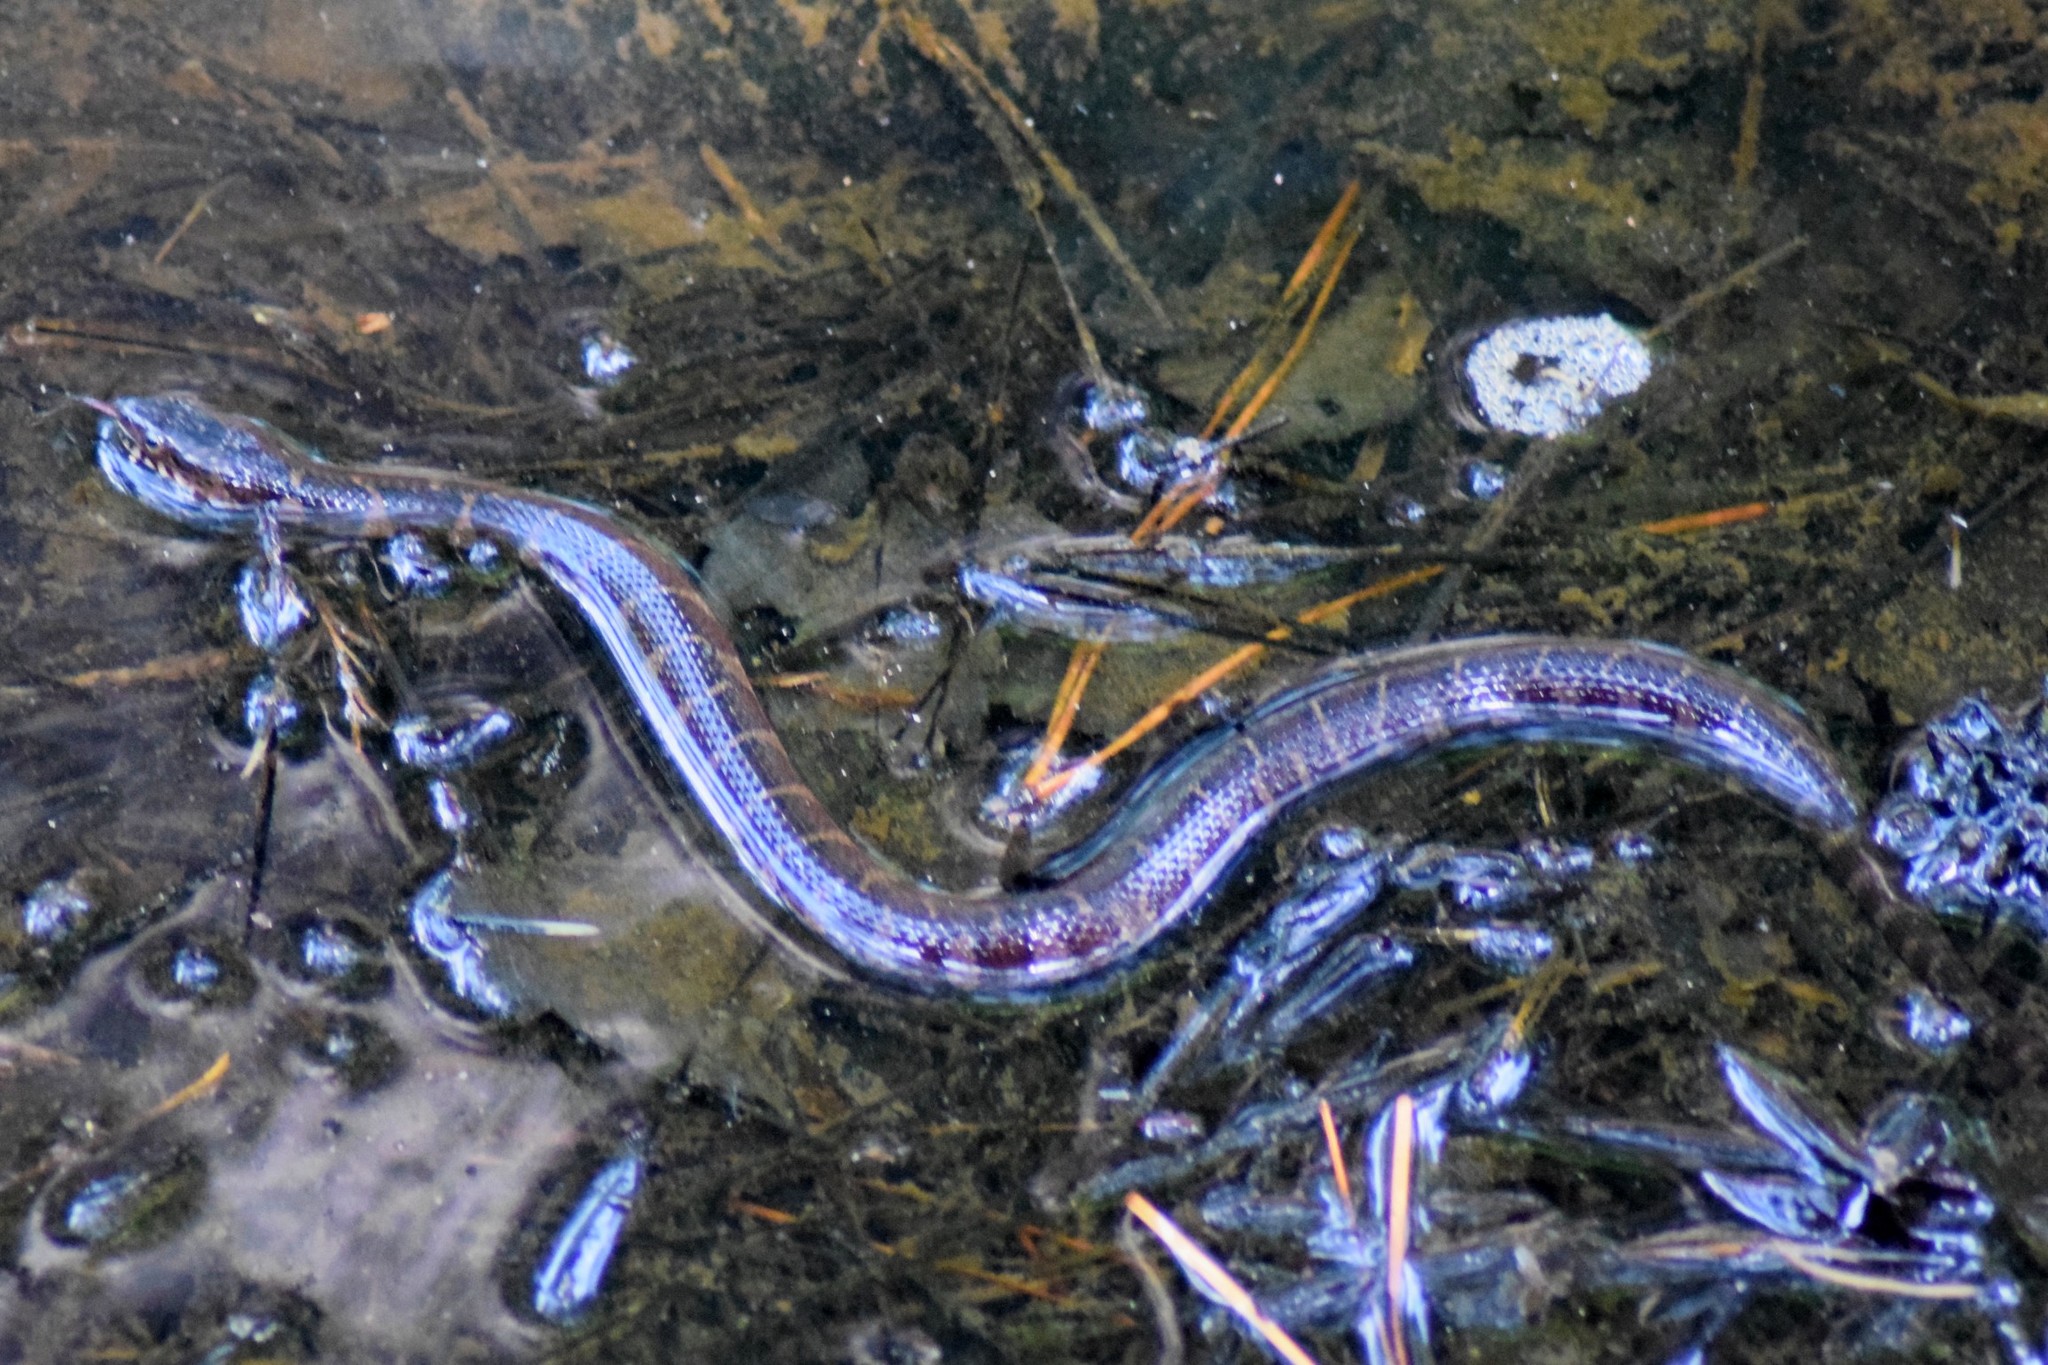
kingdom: Animalia
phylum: Chordata
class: Squamata
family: Colubridae
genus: Nerodia
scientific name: Nerodia sipedon
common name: Northern water snake
